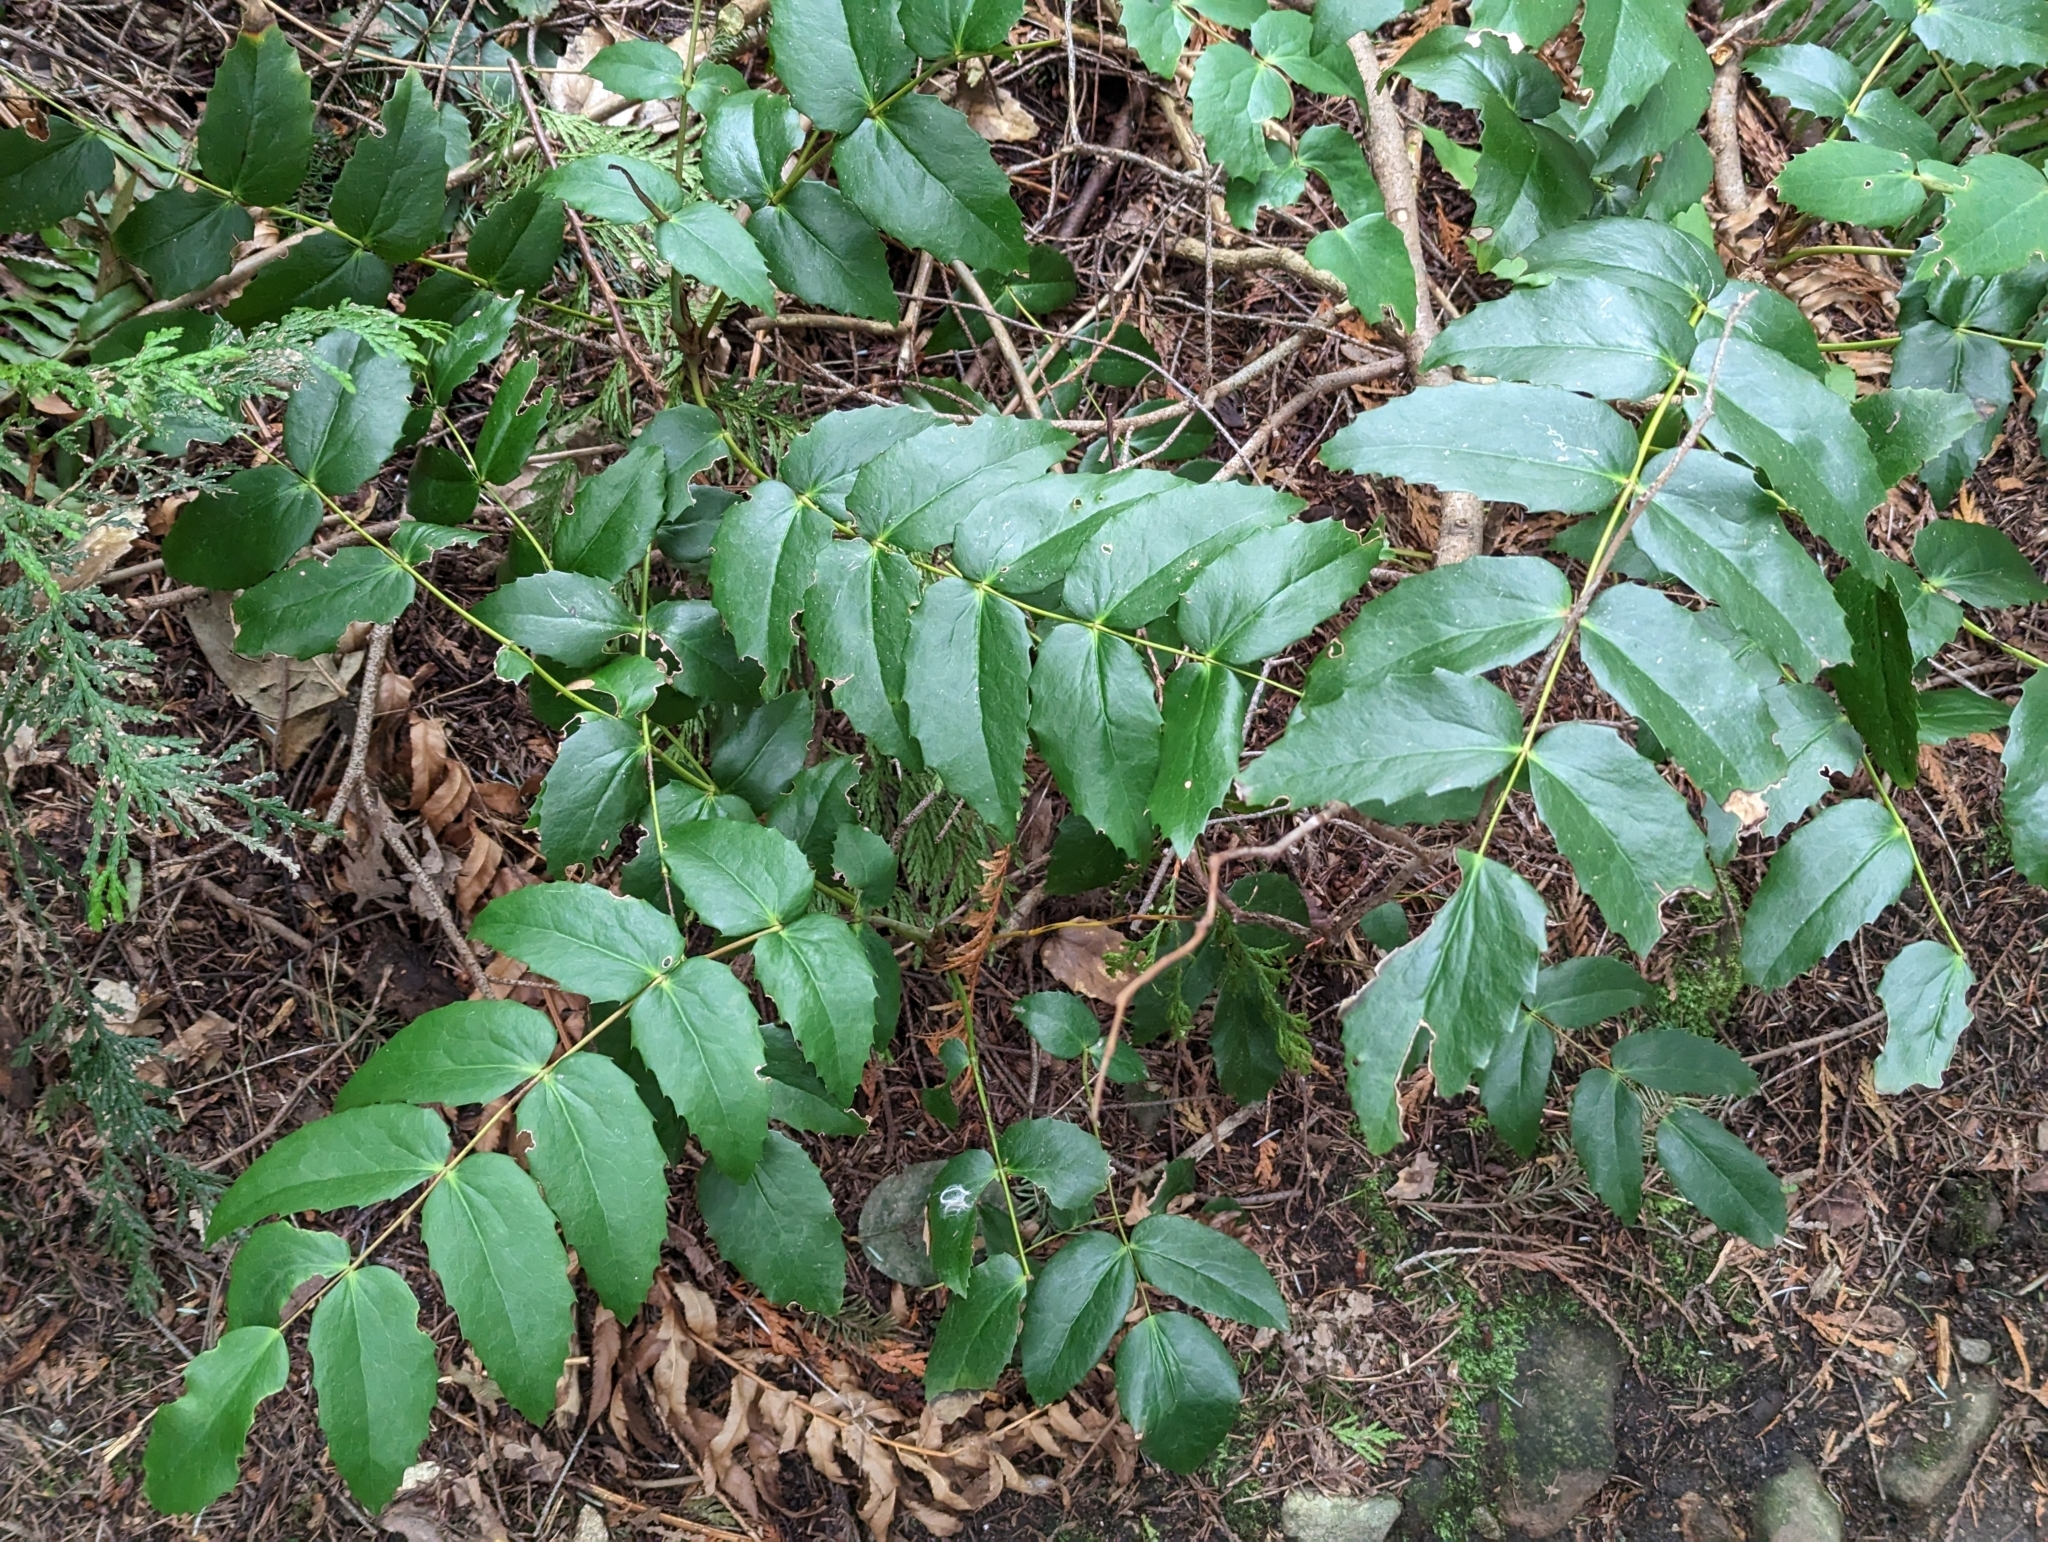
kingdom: Plantae
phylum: Tracheophyta
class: Magnoliopsida
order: Ranunculales
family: Berberidaceae
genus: Mahonia
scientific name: Mahonia nervosa
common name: Cascade oregon-grape
